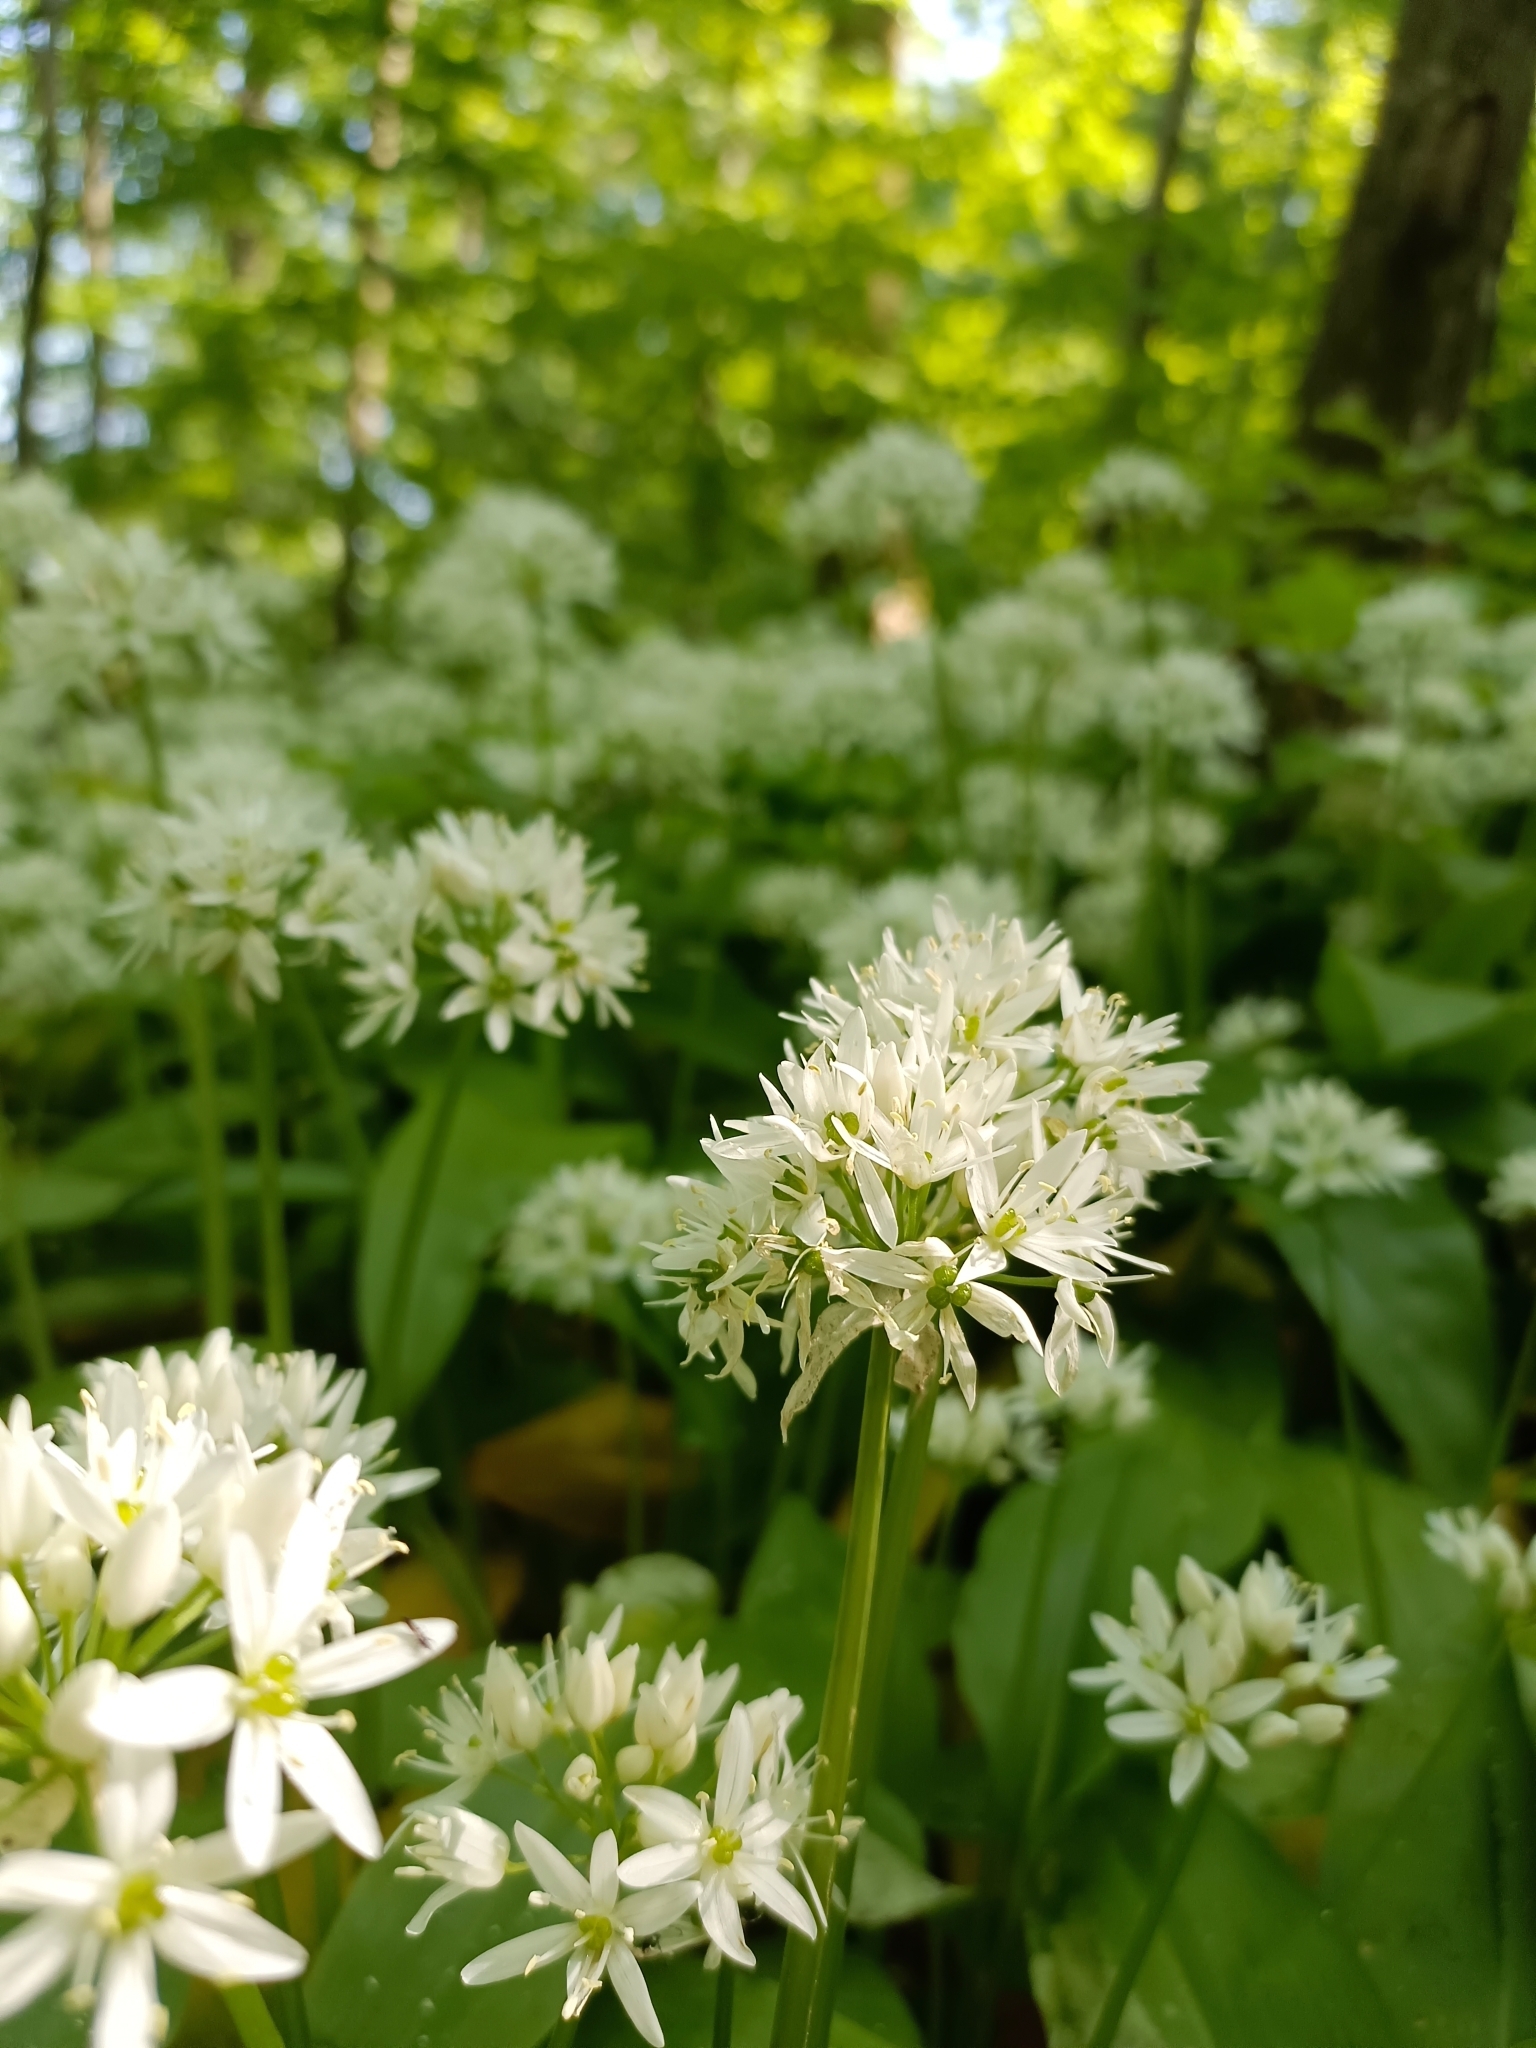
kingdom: Plantae
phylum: Tracheophyta
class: Liliopsida
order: Asparagales
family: Amaryllidaceae
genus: Allium
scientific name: Allium ursinum
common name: Ramsons
